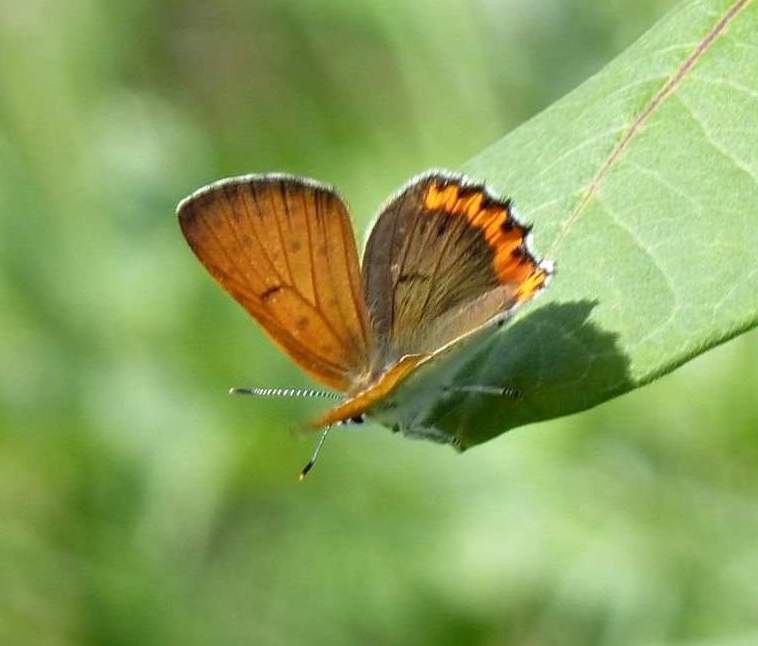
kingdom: Animalia
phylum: Arthropoda
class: Insecta
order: Lepidoptera
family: Lycaenidae
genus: Tharsalea
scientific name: Tharsalea hyllus
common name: Bronze copper
